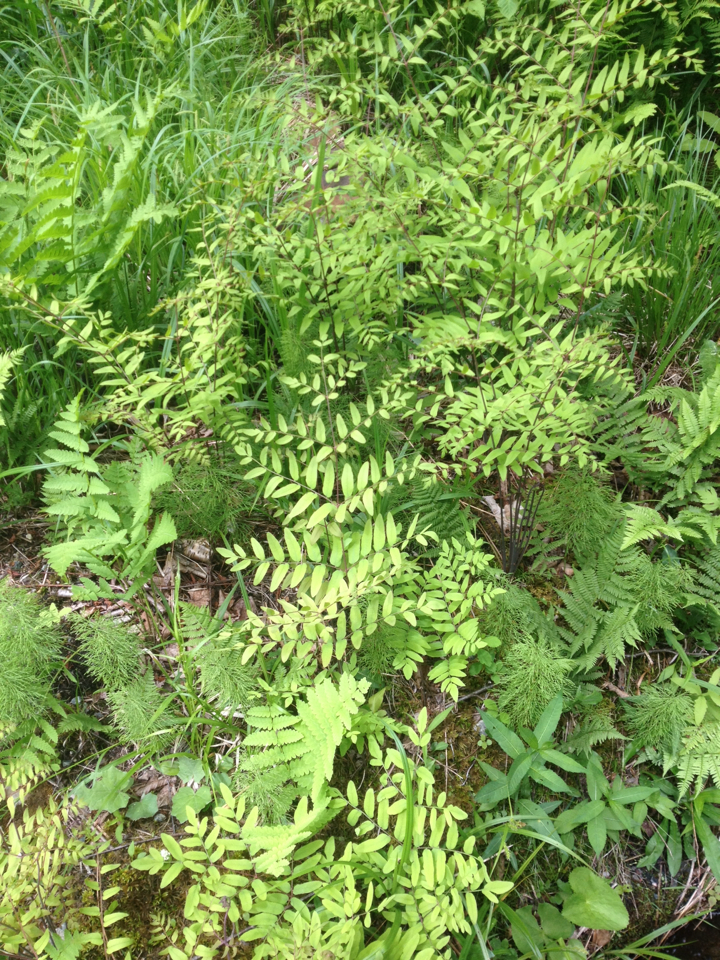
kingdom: Plantae
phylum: Tracheophyta
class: Polypodiopsida
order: Osmundales
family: Osmundaceae
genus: Osmunda
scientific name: Osmunda spectabilis
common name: American royal fern
